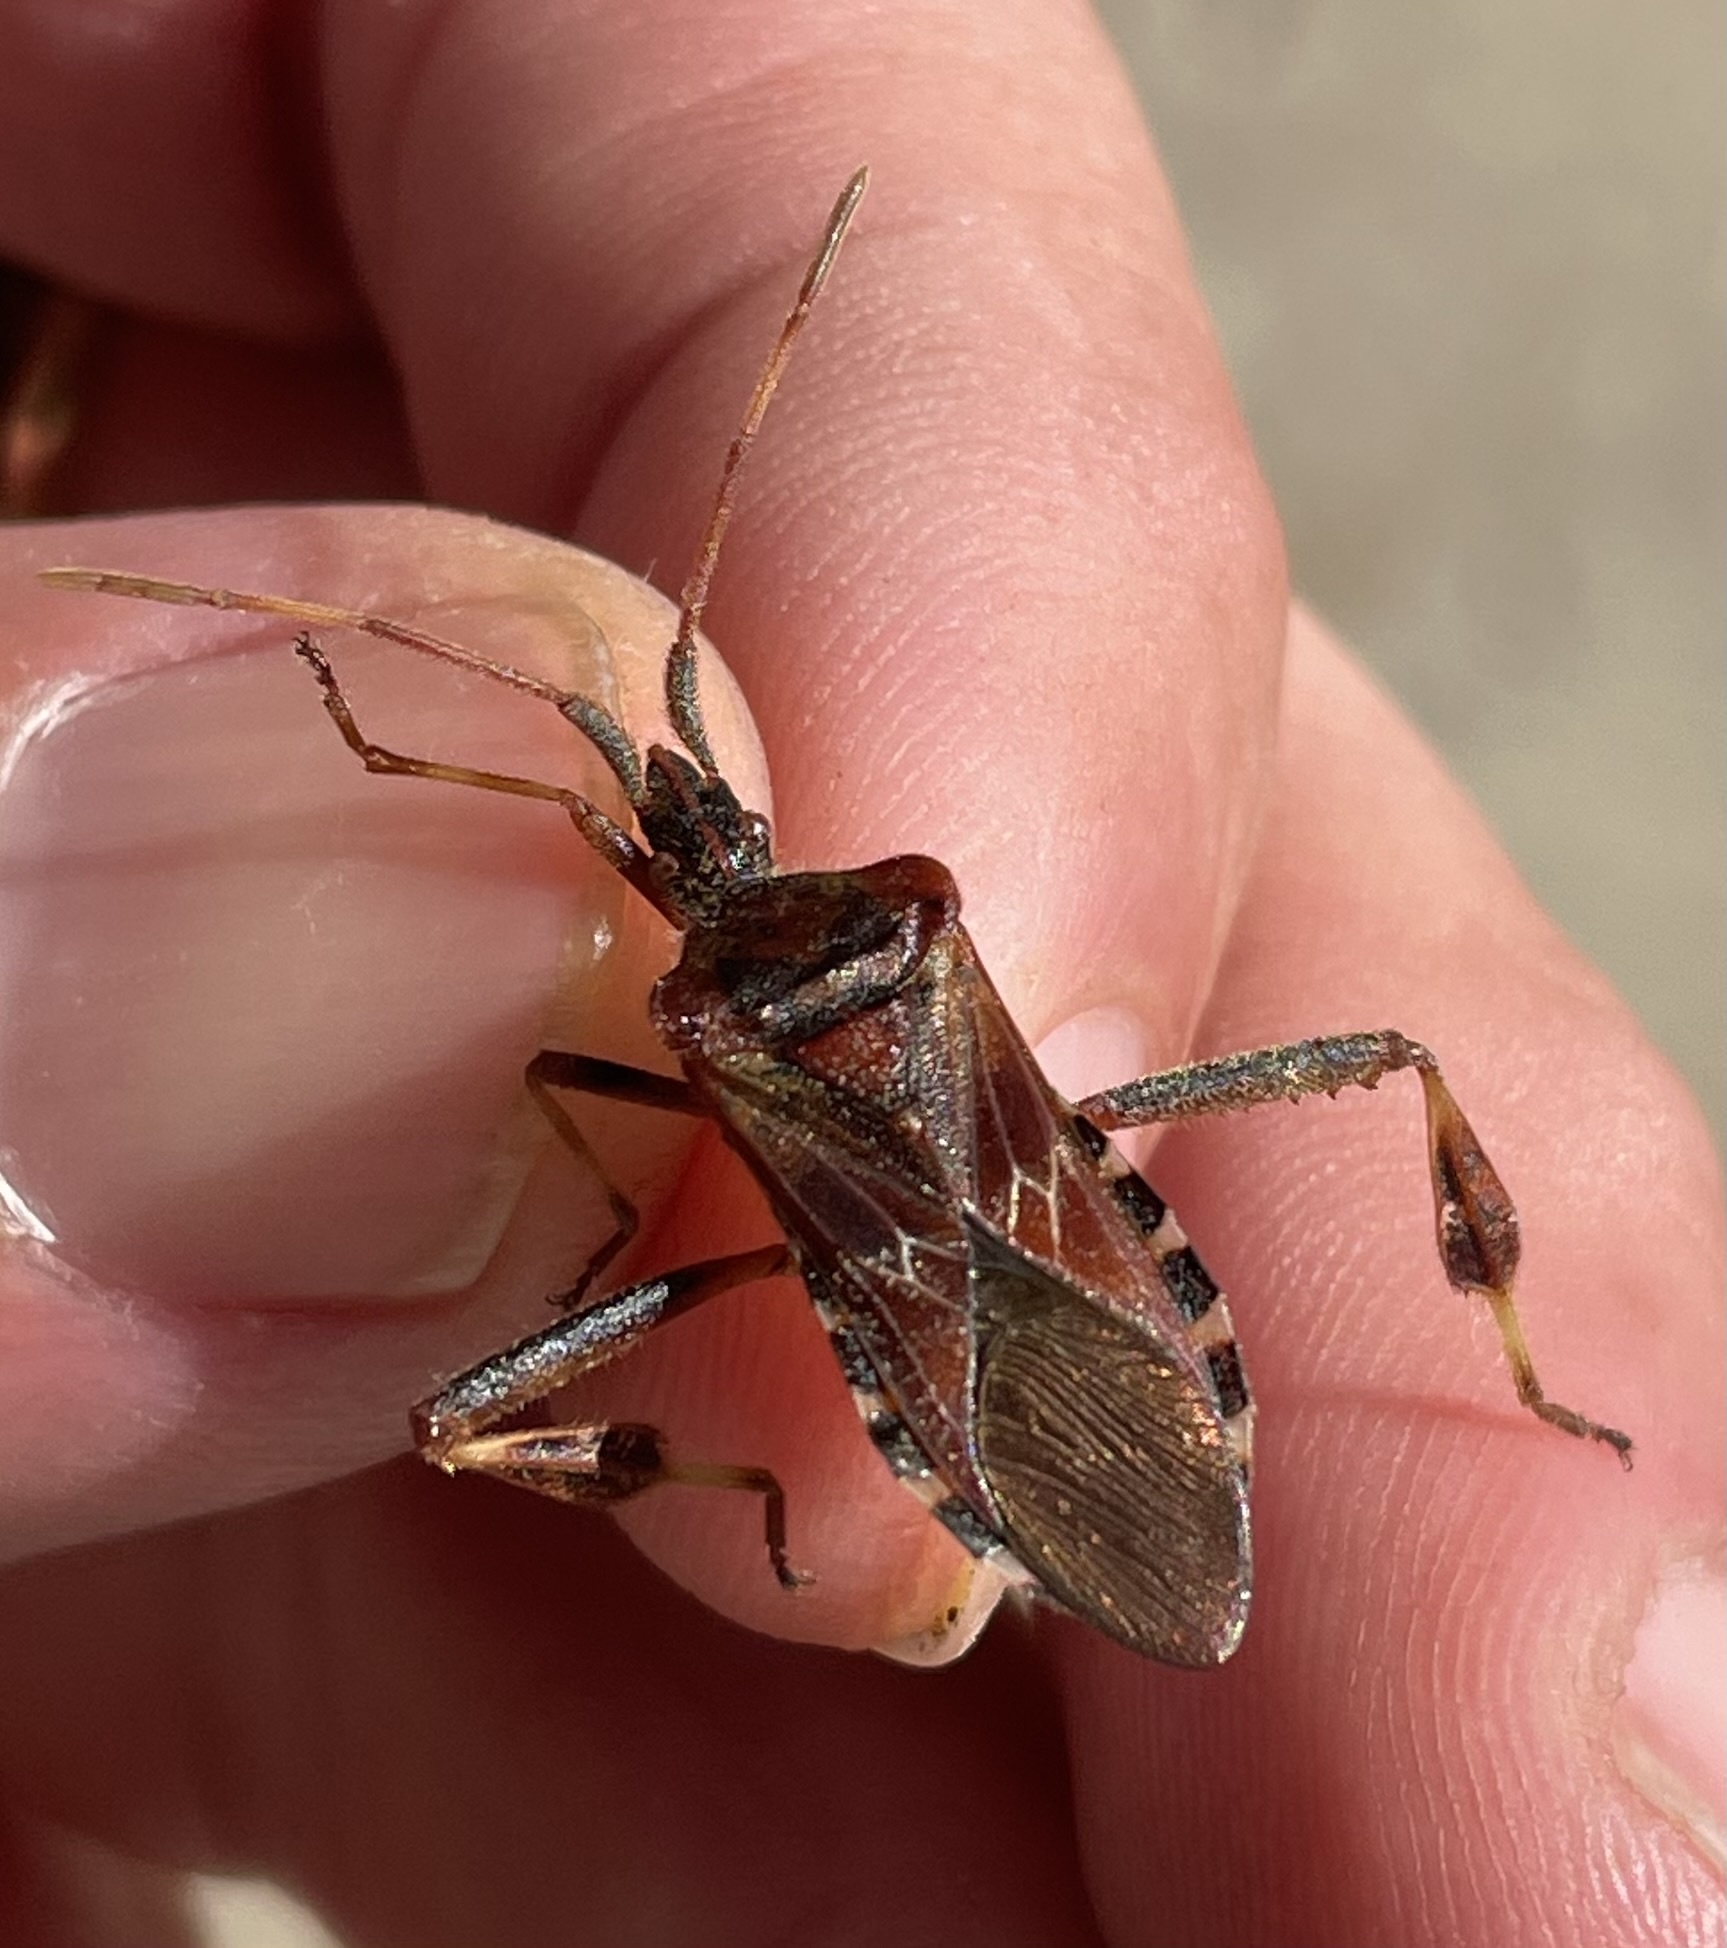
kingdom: Animalia
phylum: Arthropoda
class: Insecta
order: Hemiptera
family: Coreidae
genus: Leptoglossus
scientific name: Leptoglossus occidentalis
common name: Western conifer-seed bug
